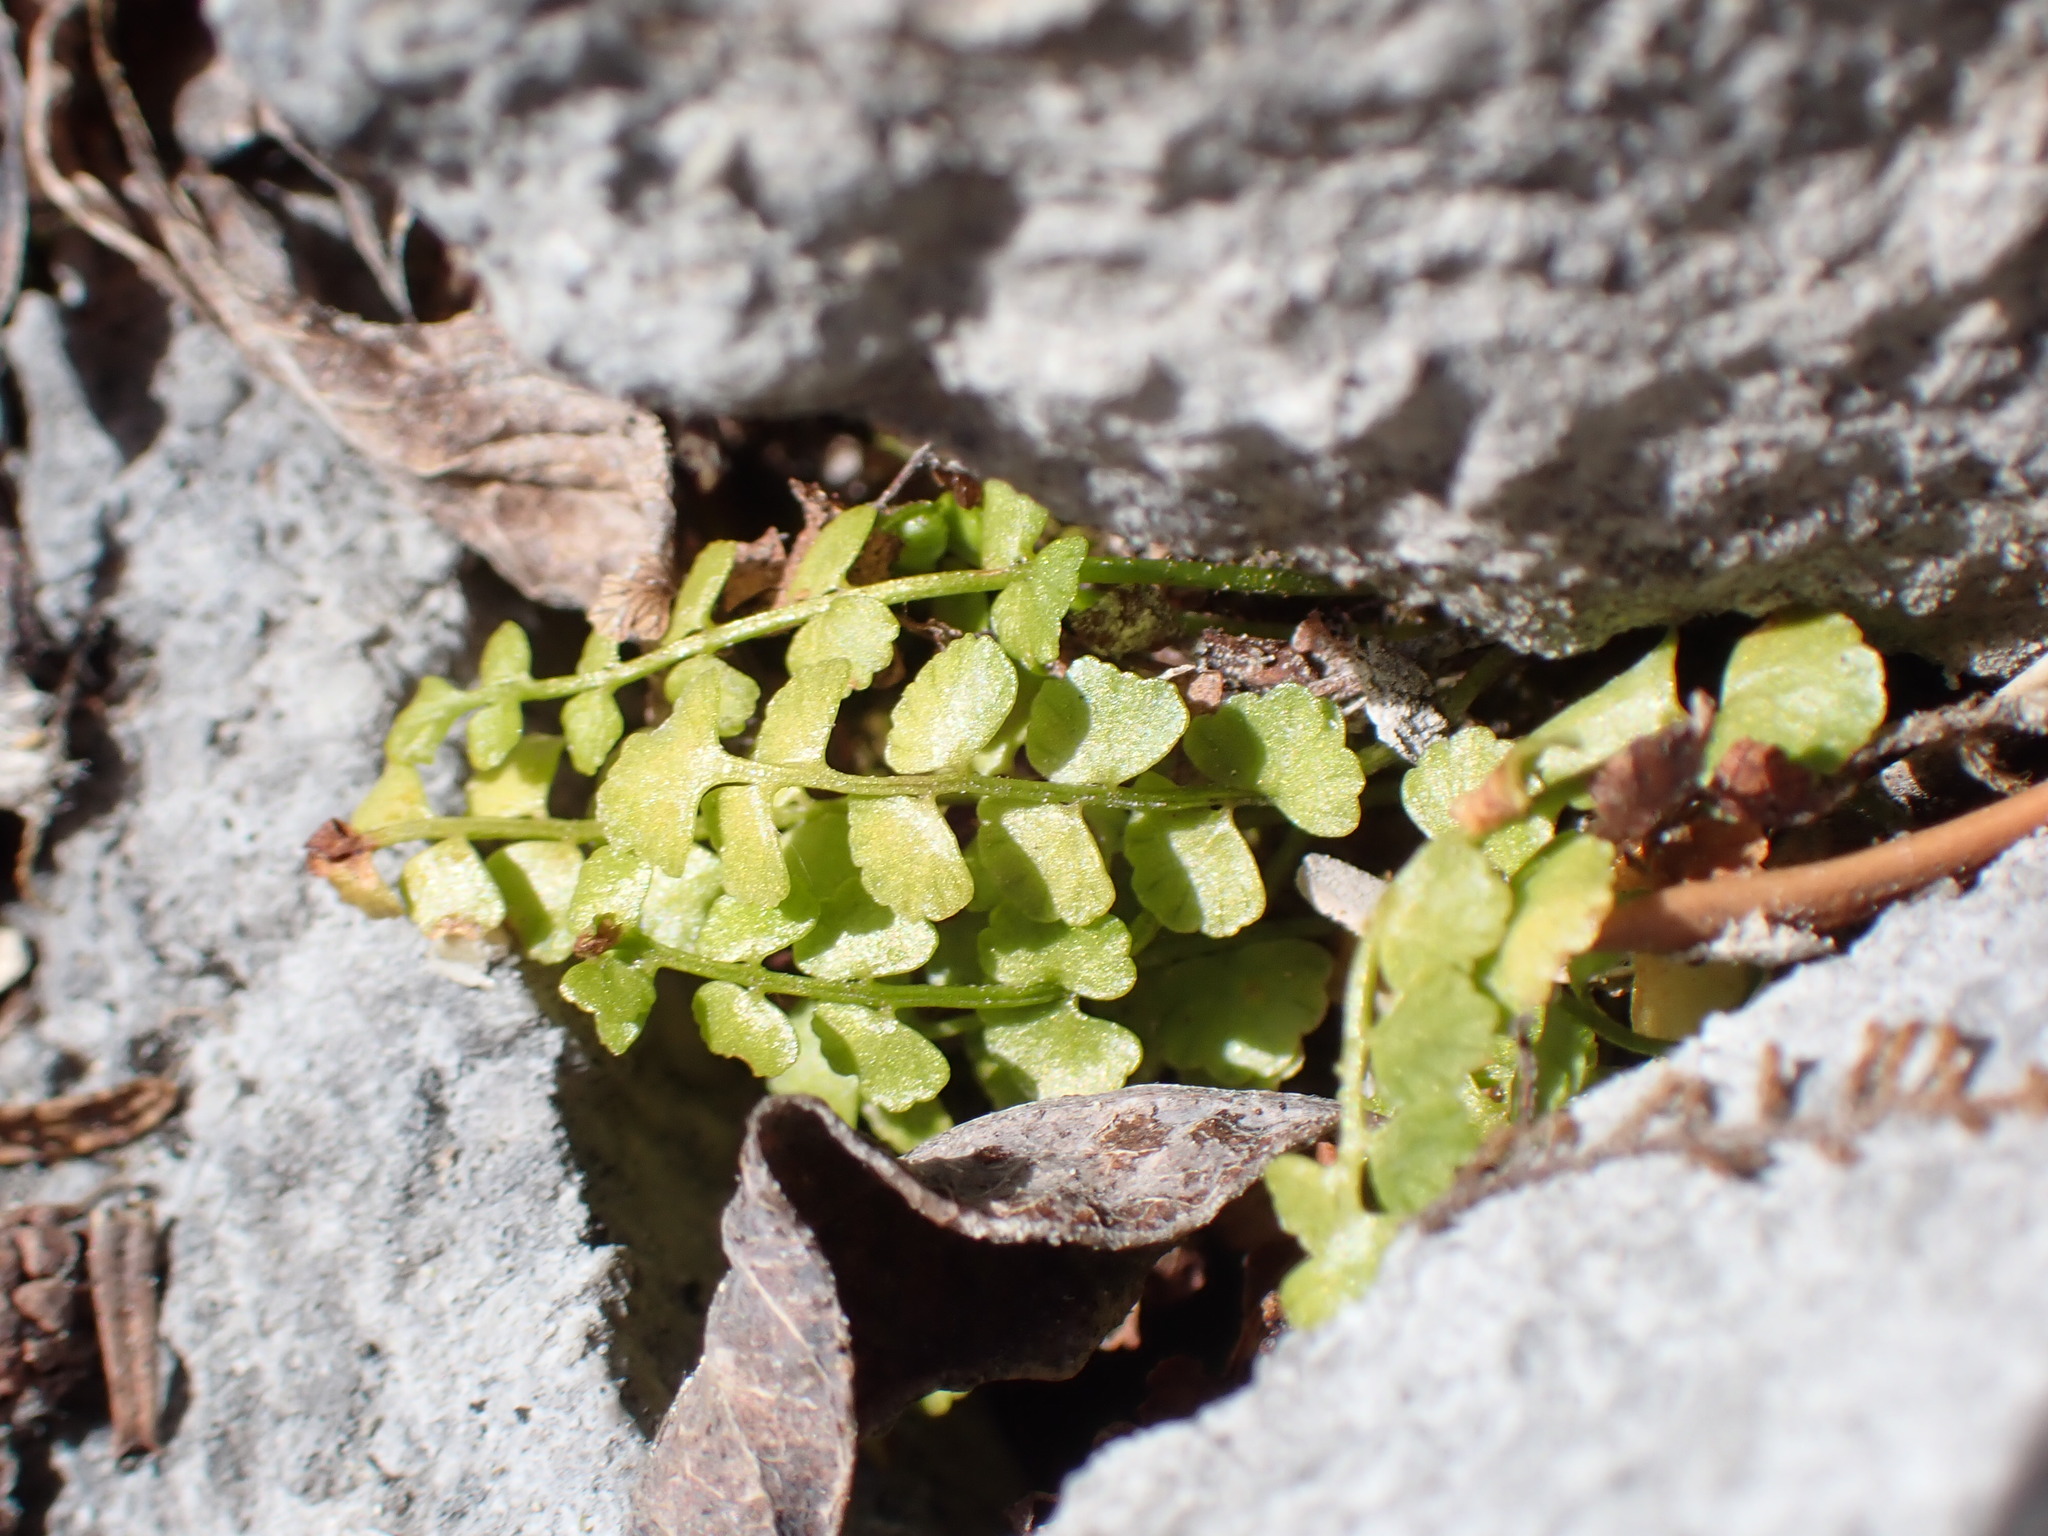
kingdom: Plantae
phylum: Tracheophyta
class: Polypodiopsida
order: Polypodiales
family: Aspleniaceae
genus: Asplenium
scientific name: Asplenium viride
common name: Green spleenwort
